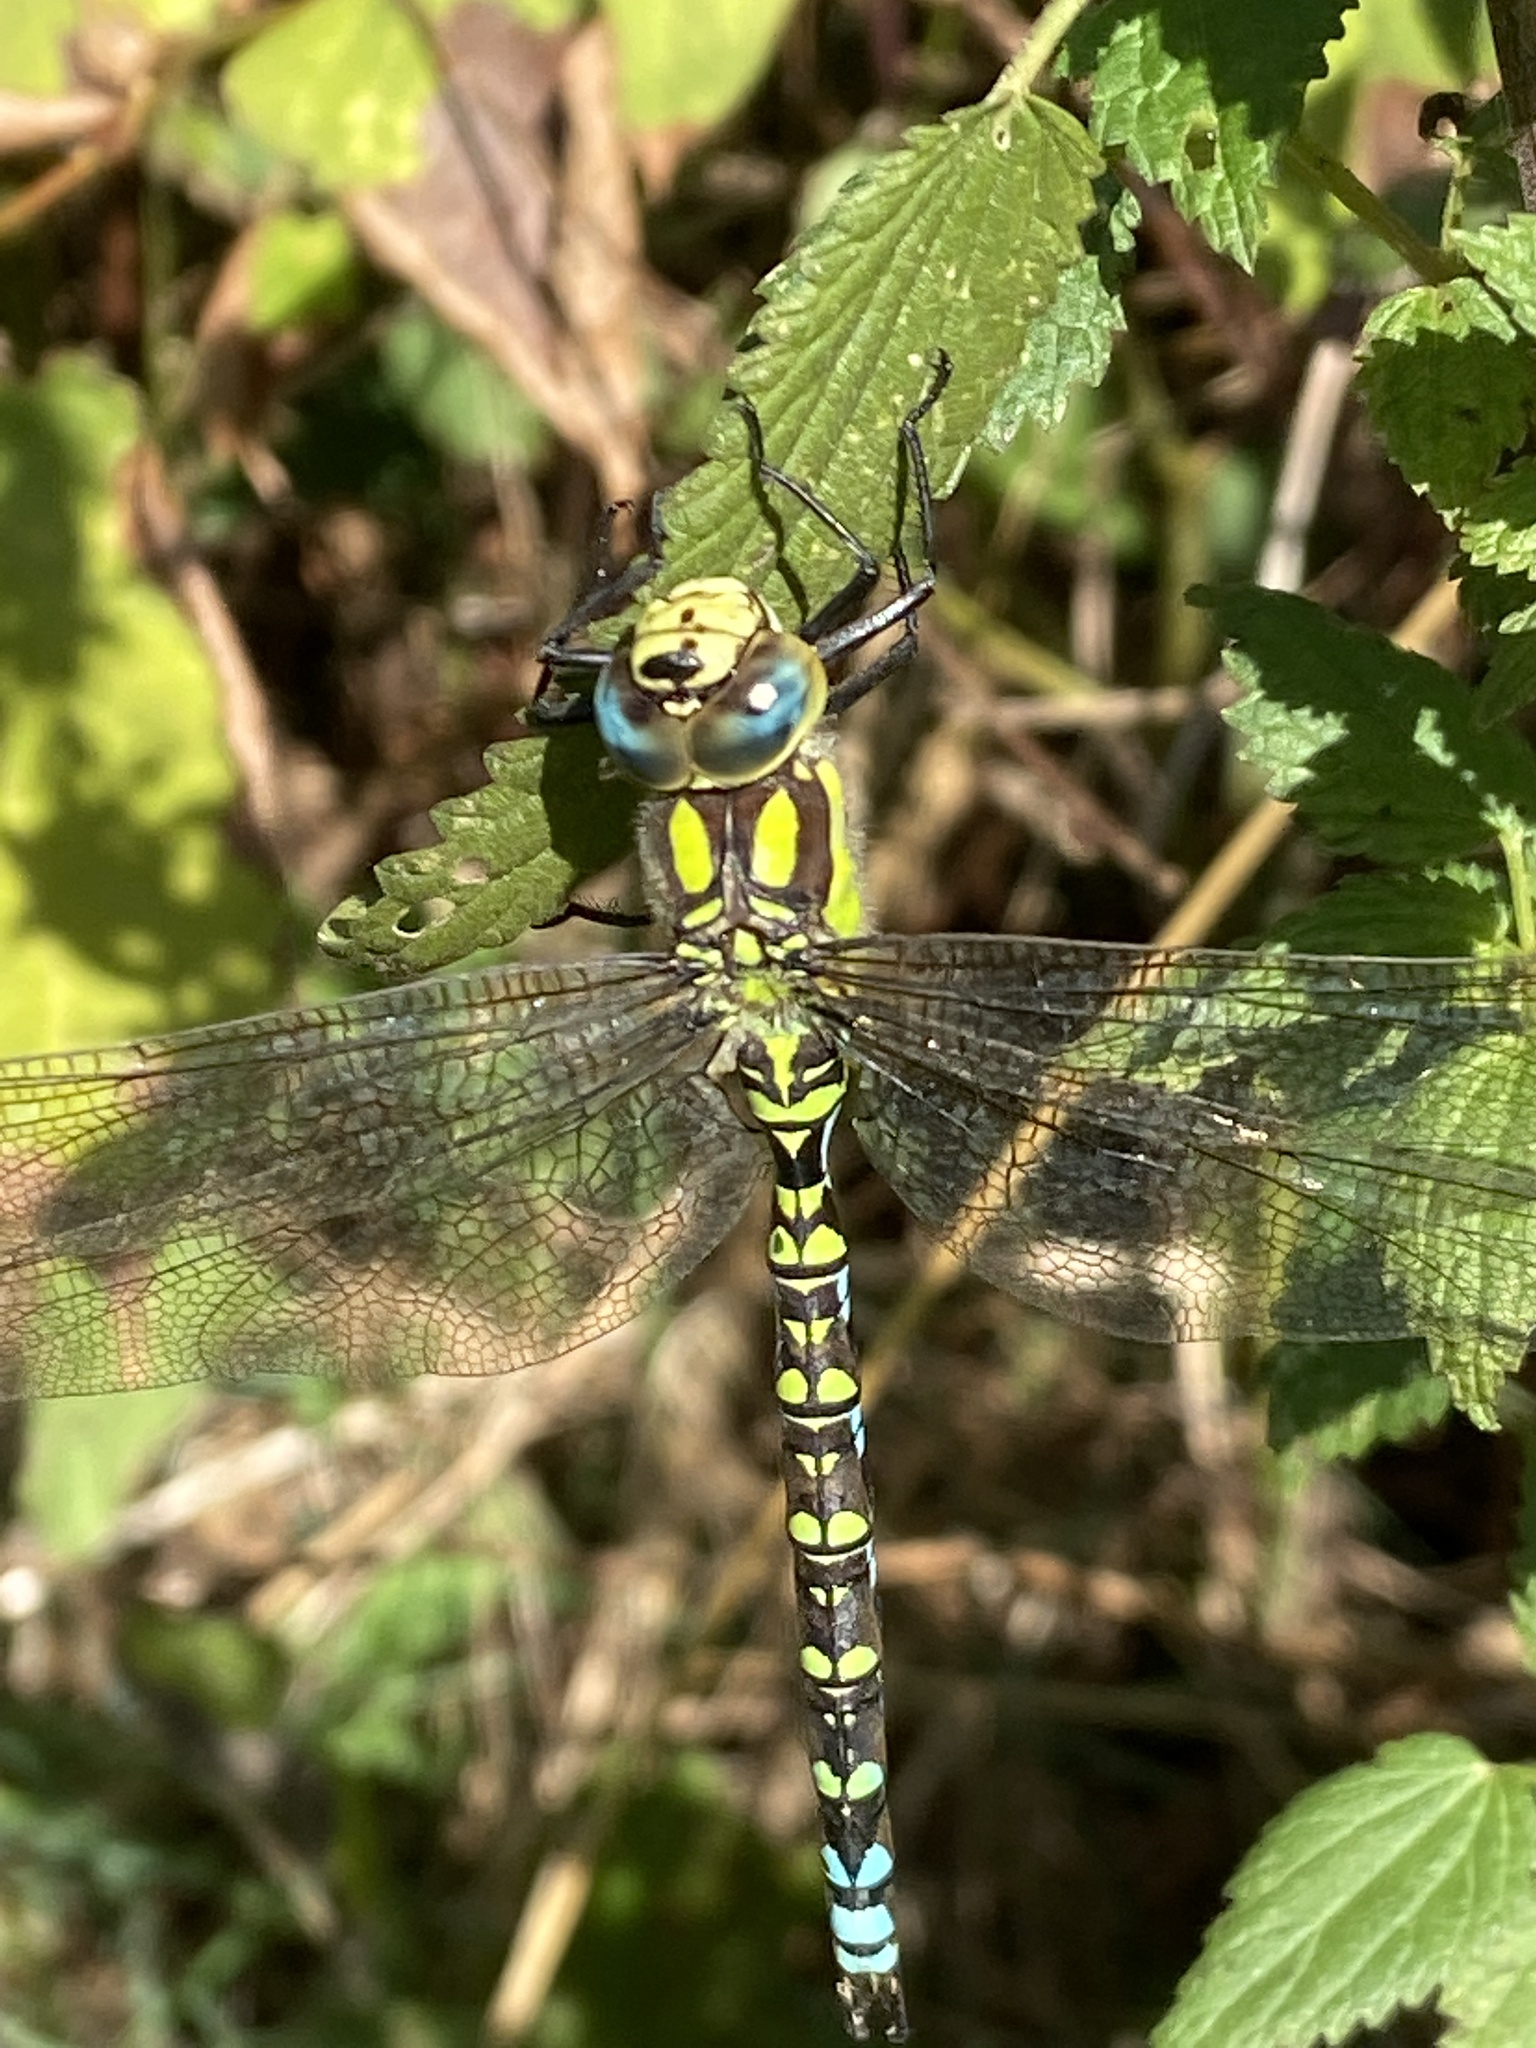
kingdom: Animalia
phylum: Arthropoda
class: Insecta
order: Odonata
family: Aeshnidae
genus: Aeshna
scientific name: Aeshna cyanea
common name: Southern hawker
